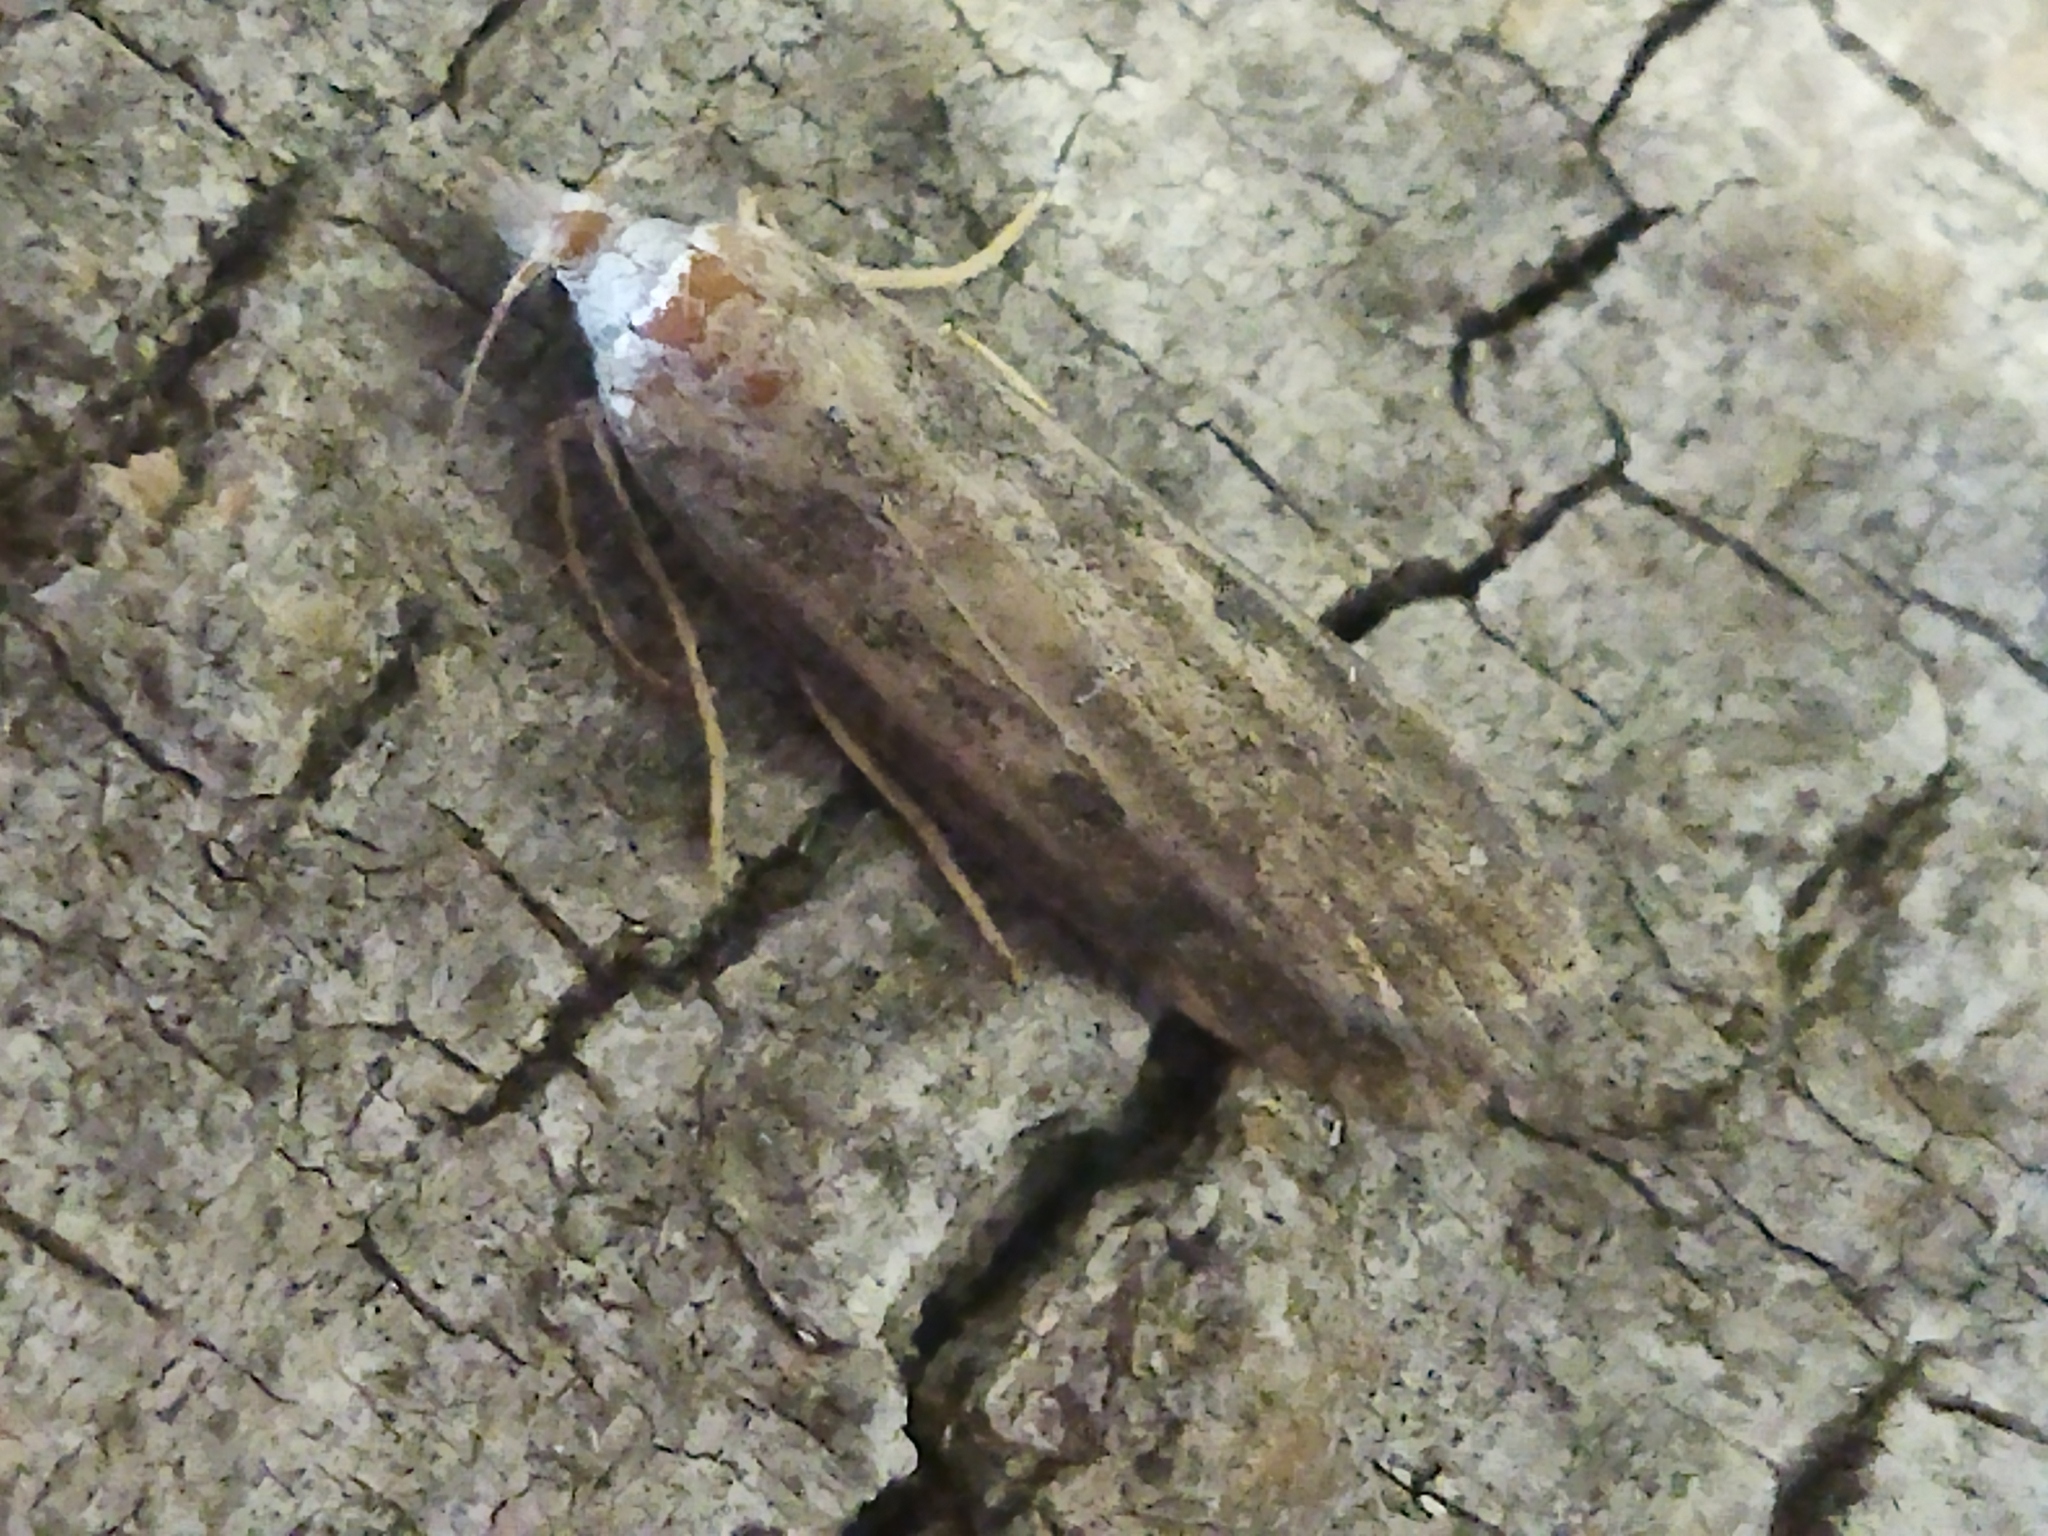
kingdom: Animalia
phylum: Arthropoda
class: Insecta
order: Lepidoptera
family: Pyralidae
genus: Aphomia
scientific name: Aphomia sociella
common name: Bee moth
